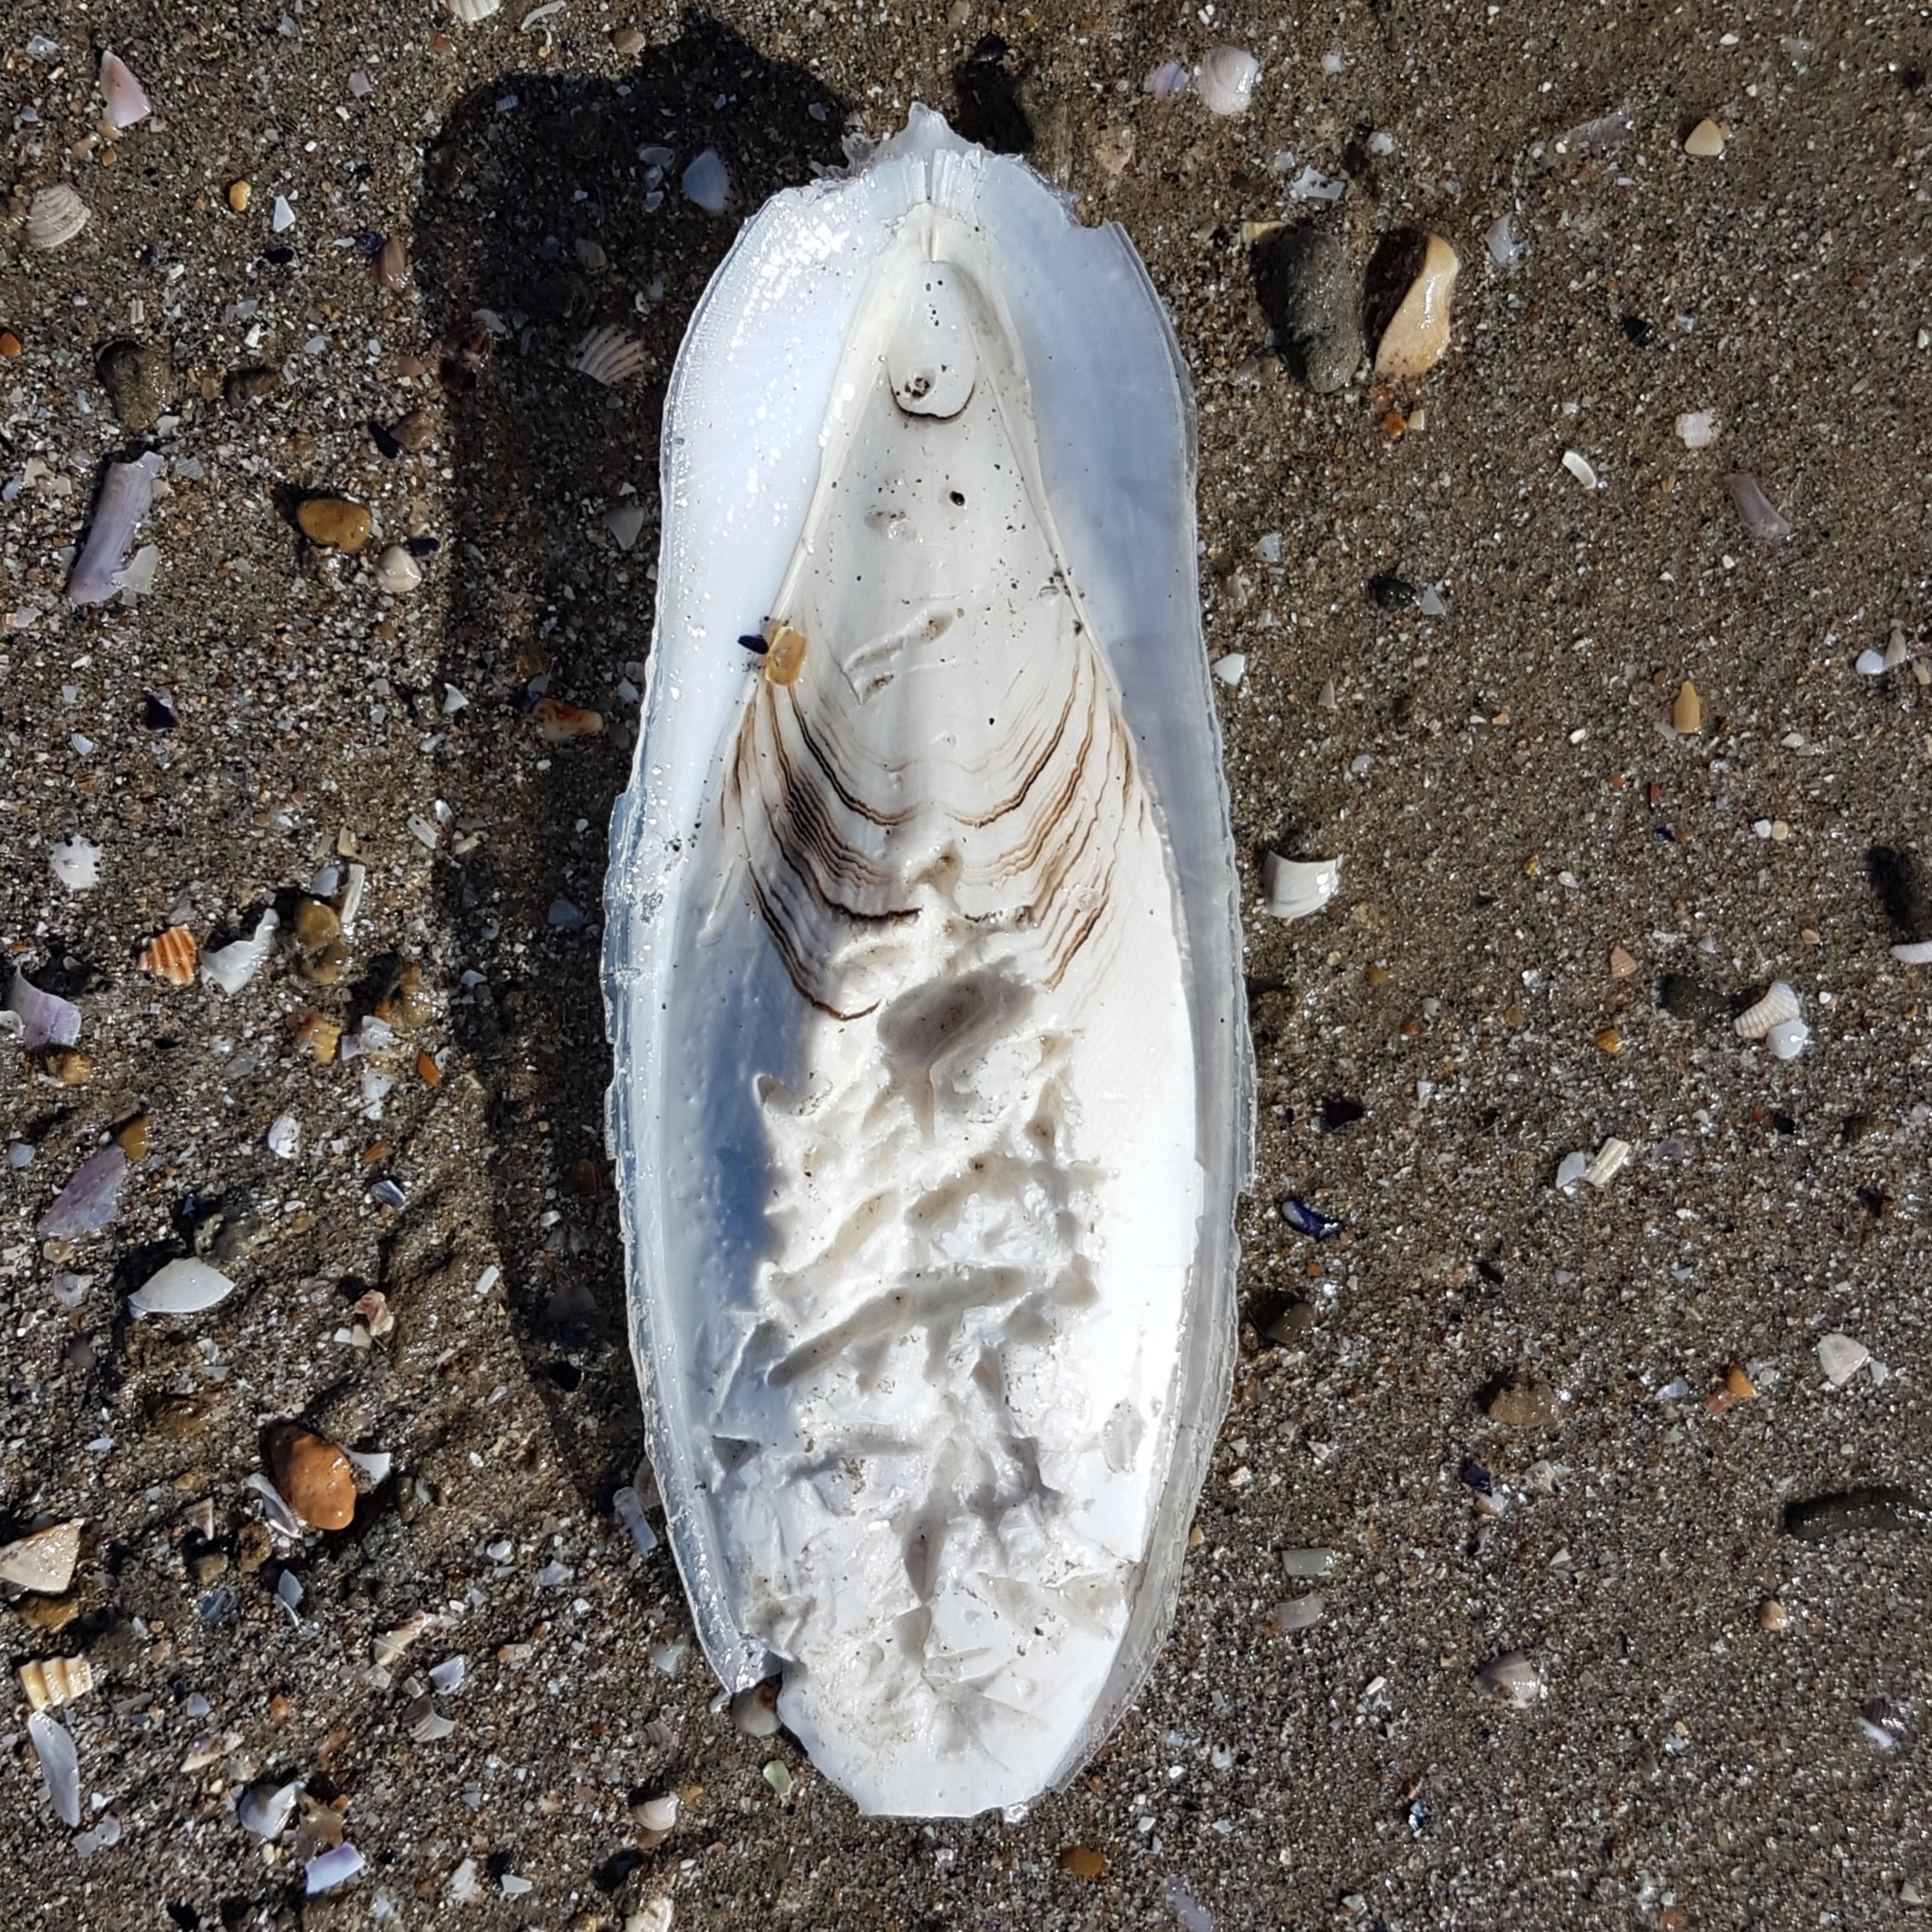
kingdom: Animalia
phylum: Mollusca
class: Cephalopoda
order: Sepiida
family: Sepiidae
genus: Sepia
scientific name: Sepia officinalis
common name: Common cuttlefish
